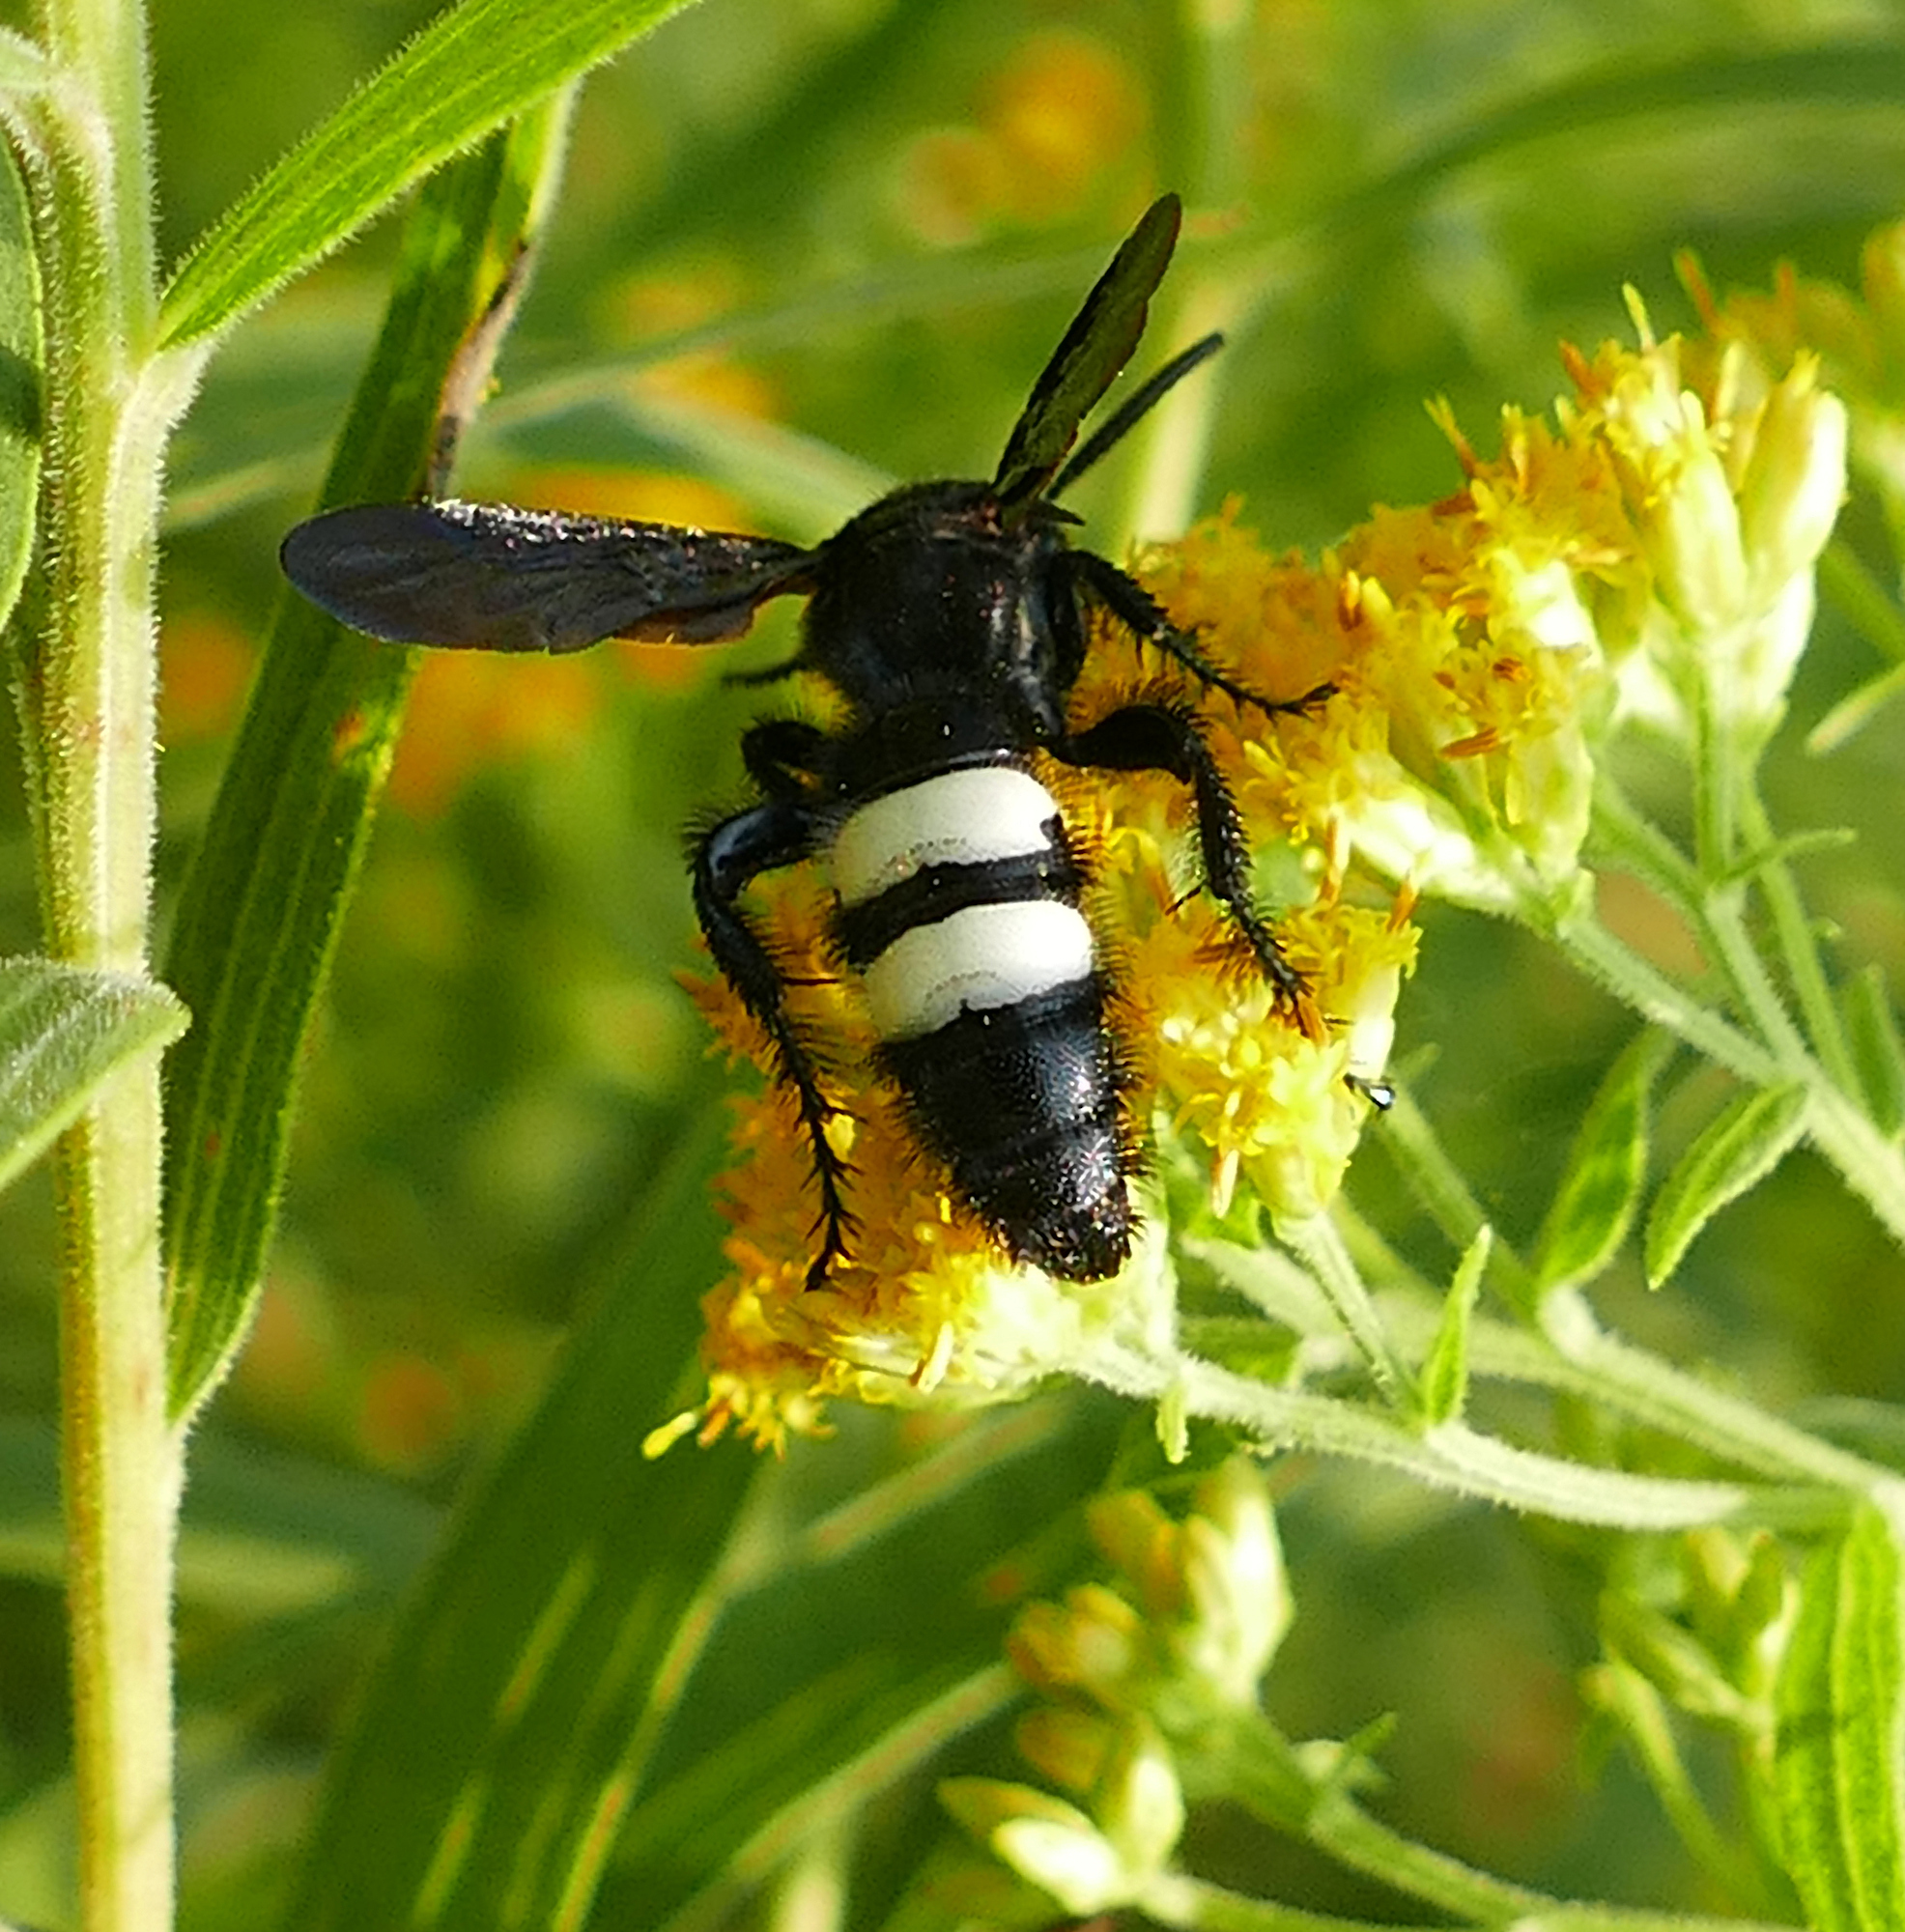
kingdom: Animalia
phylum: Arthropoda
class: Insecta
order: Hymenoptera
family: Scoliidae
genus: Scolia
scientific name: Scolia bicincta
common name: Double-banded scoliid wasp
